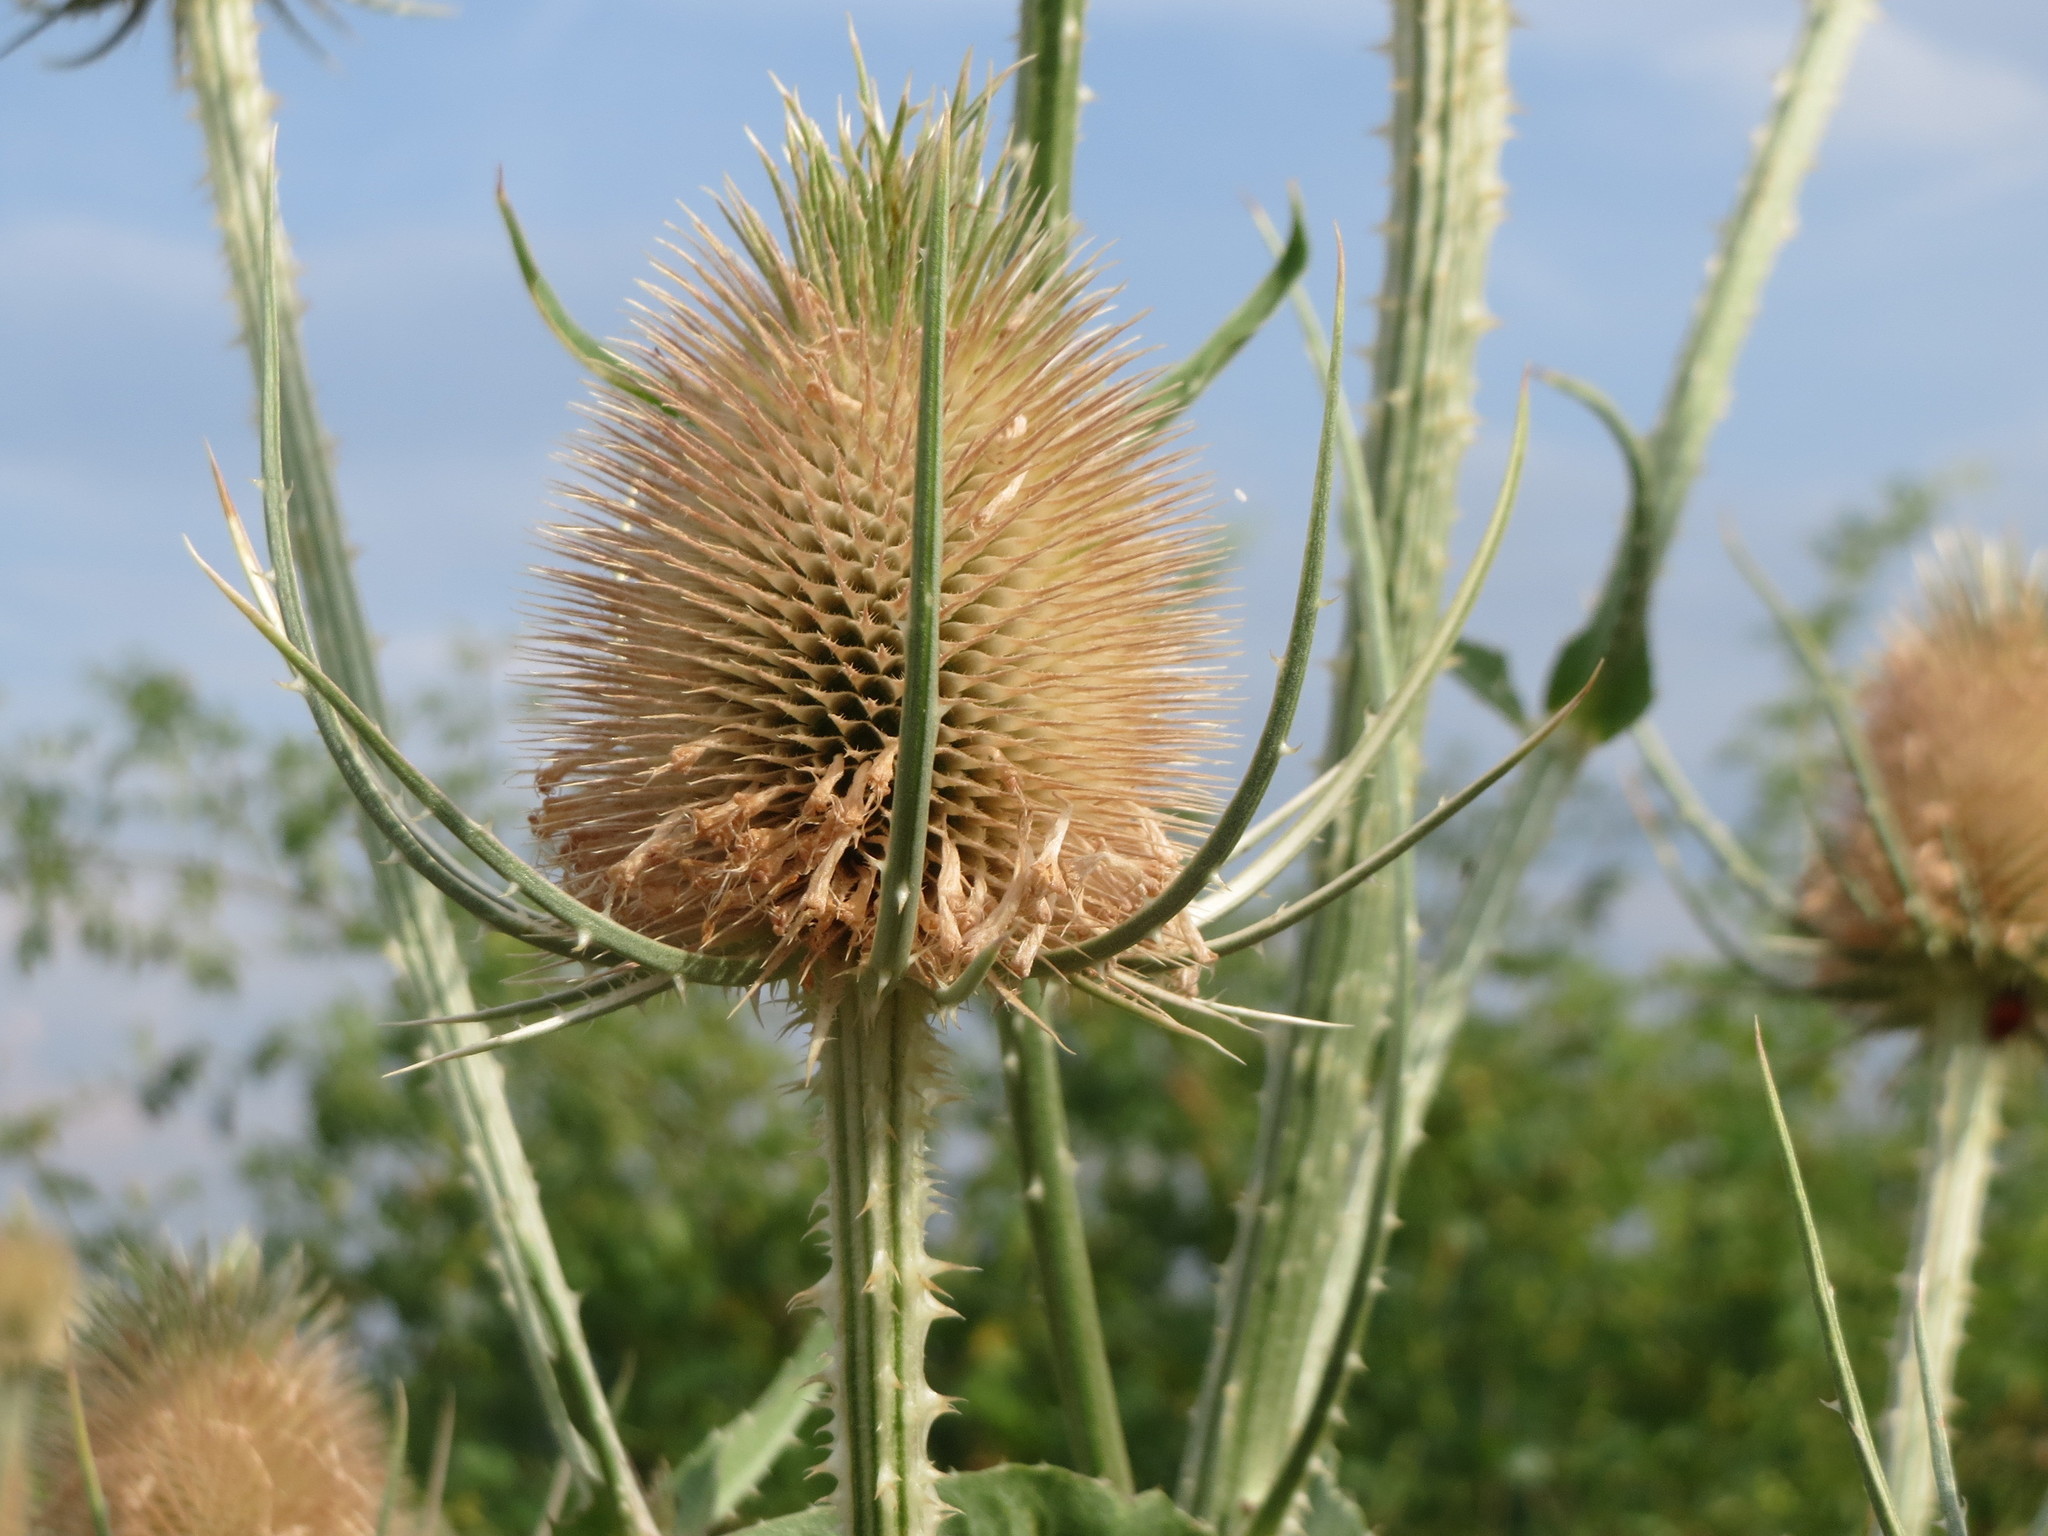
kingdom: Plantae
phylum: Tracheophyta
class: Magnoliopsida
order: Dipsacales
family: Caprifoliaceae
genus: Dipsacus
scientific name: Dipsacus fullonum
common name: Teasel
